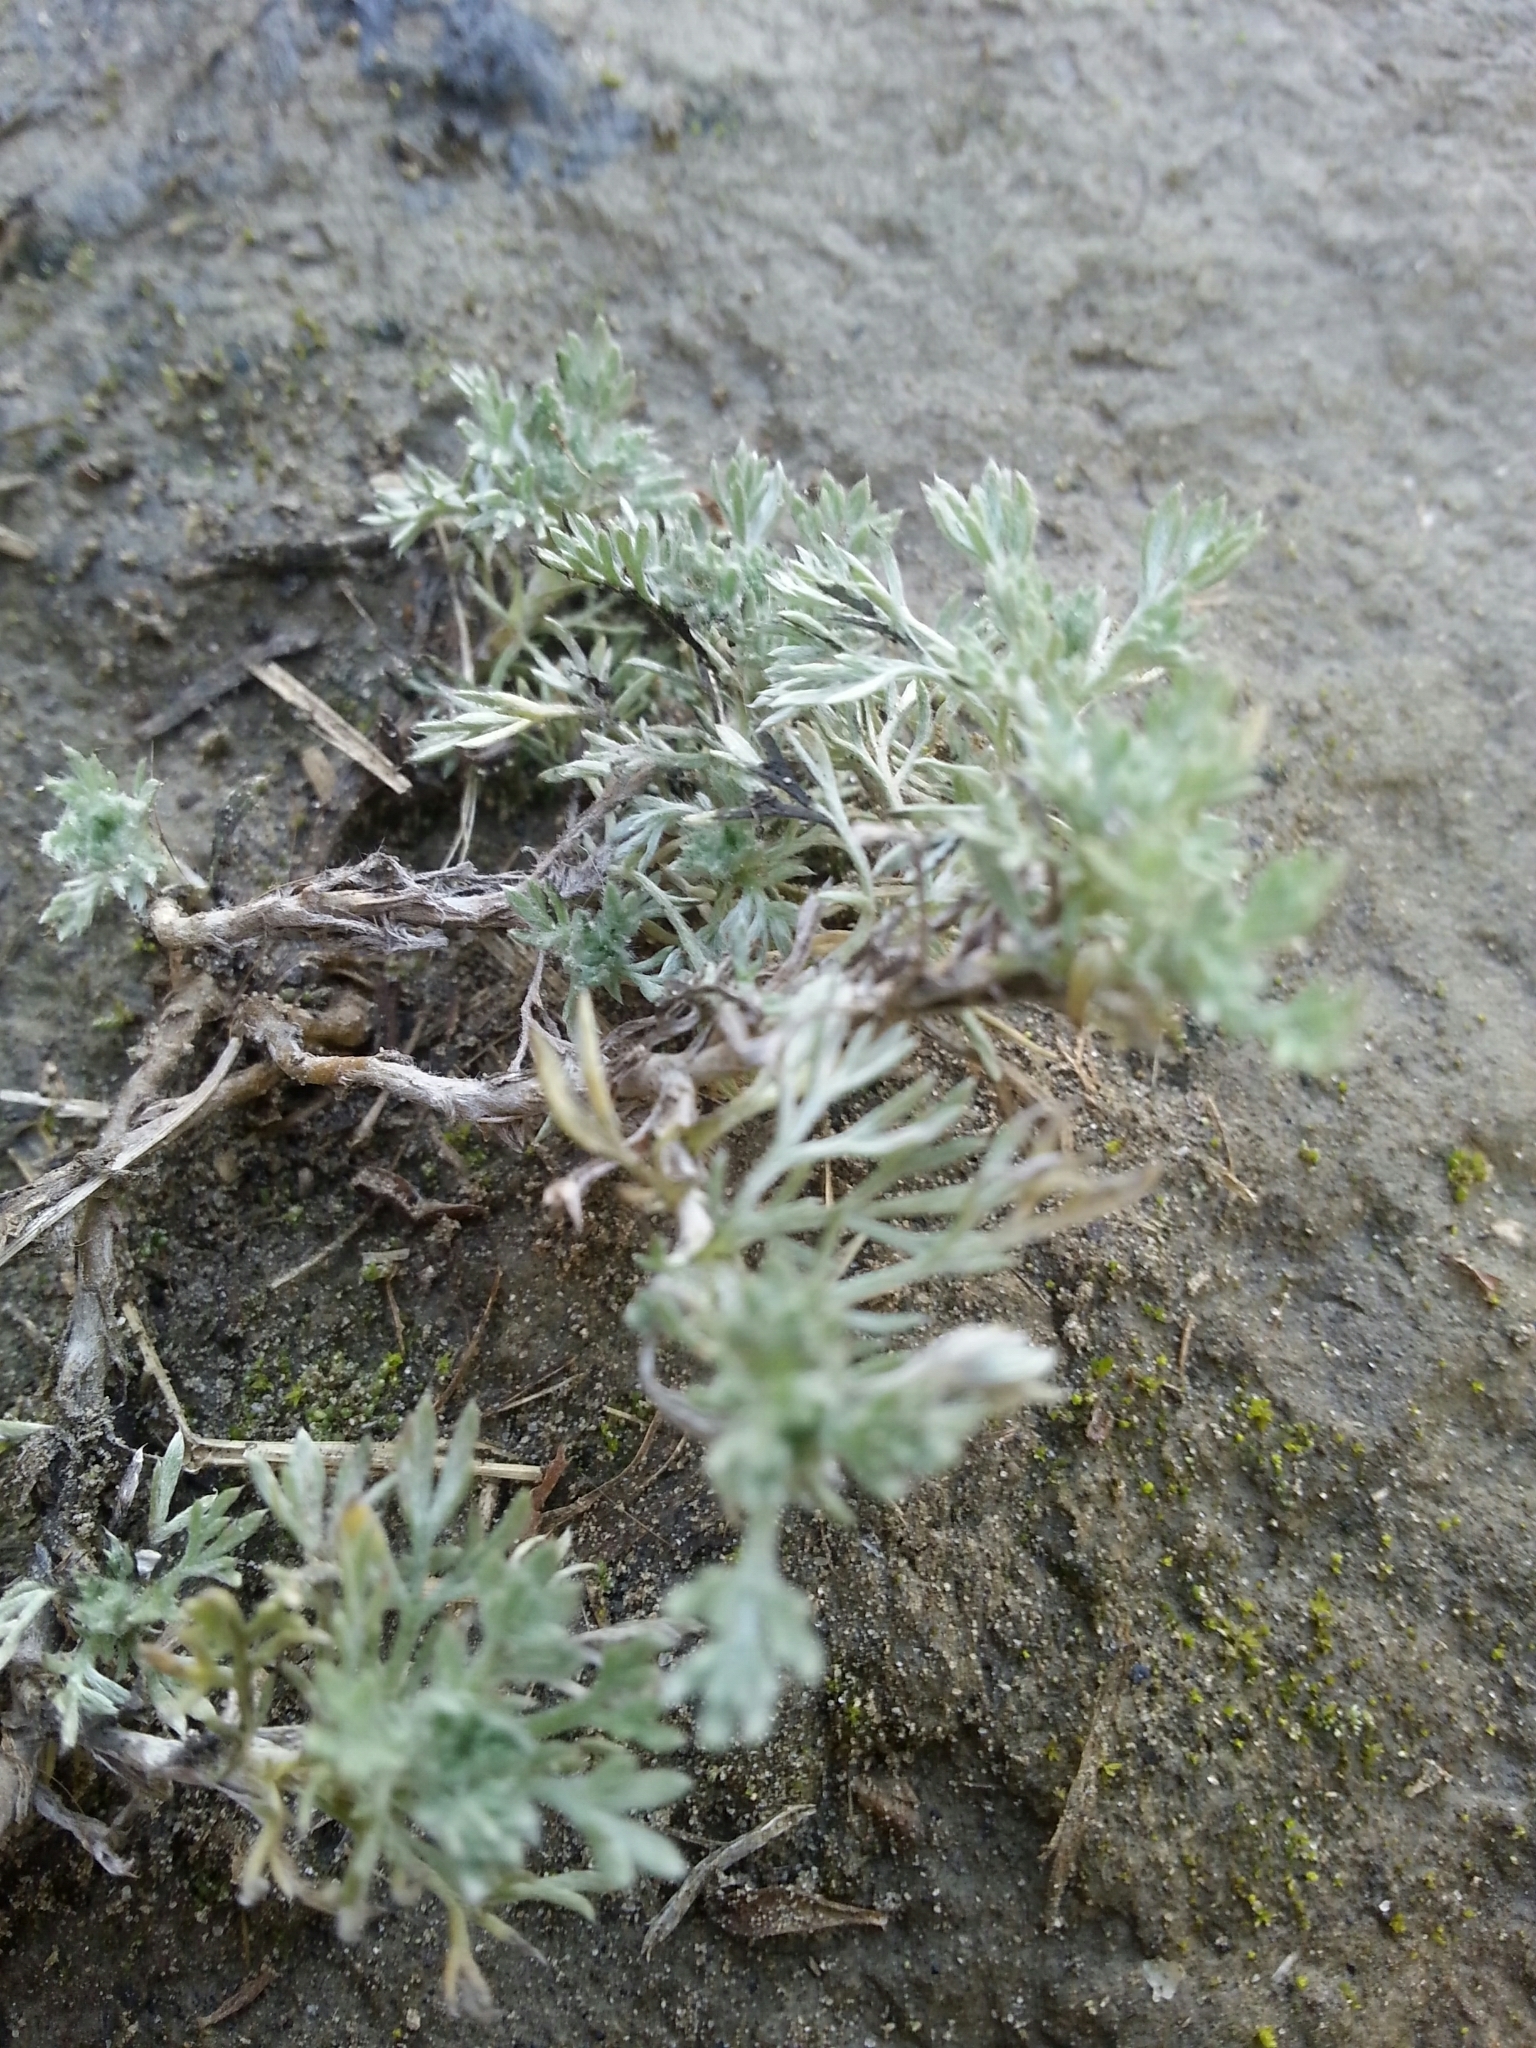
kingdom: Plantae
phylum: Tracheophyta
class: Magnoliopsida
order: Asterales
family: Asteraceae
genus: Artemisia
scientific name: Artemisia campestris
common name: Field wormwood
